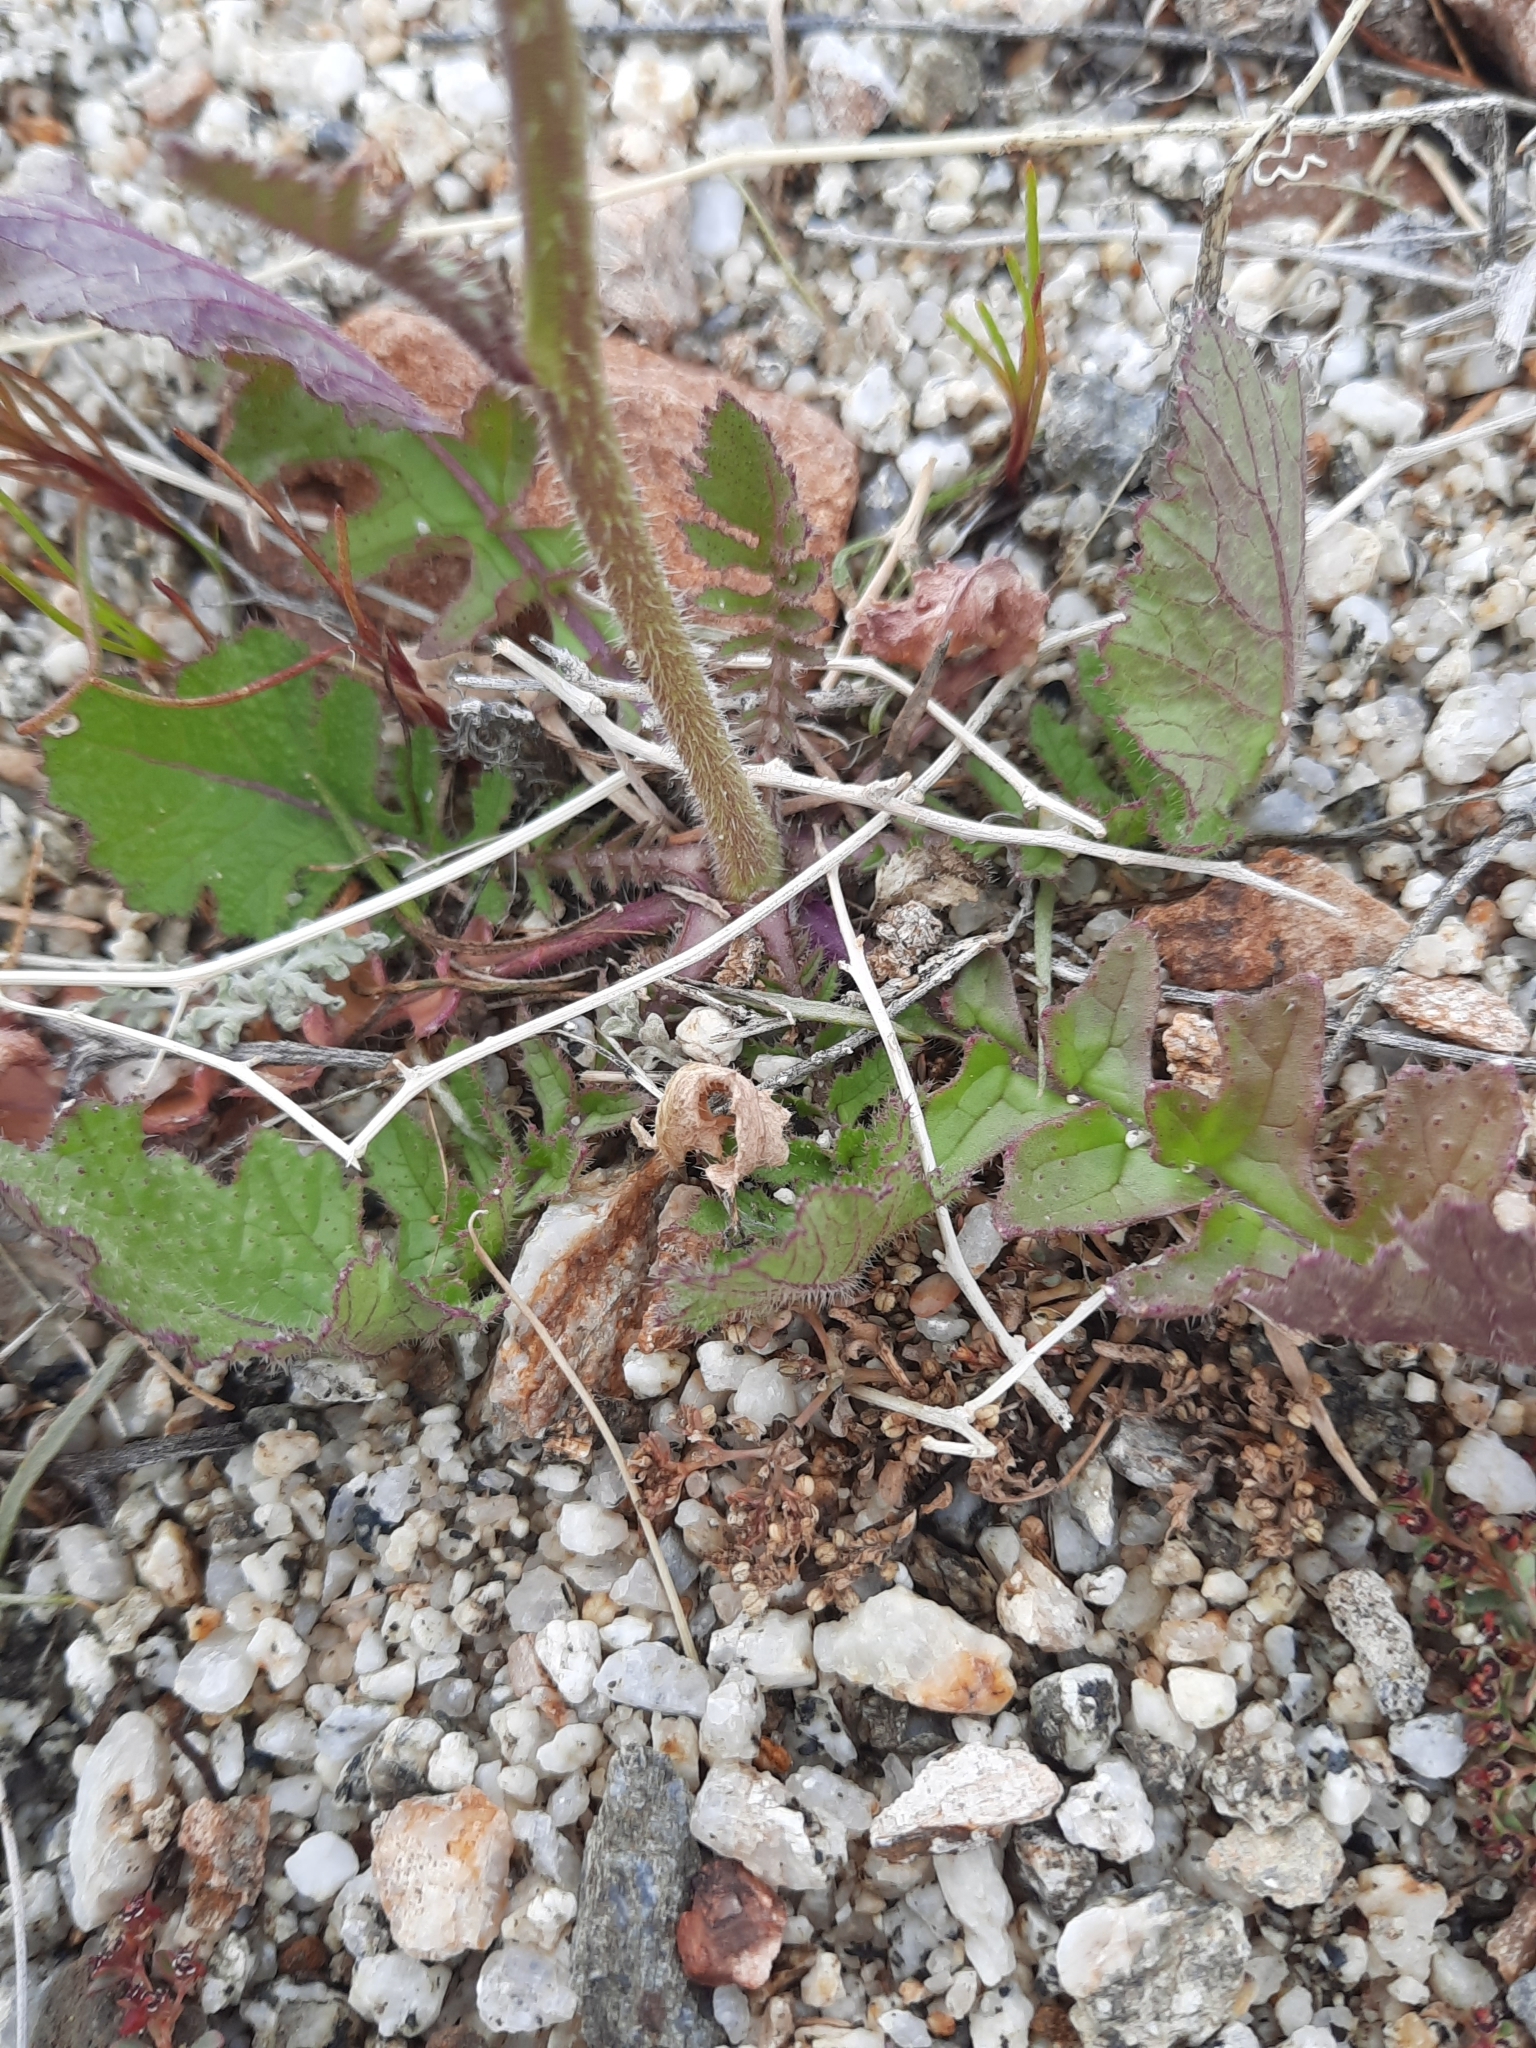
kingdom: Plantae
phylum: Tracheophyta
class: Magnoliopsida
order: Brassicales
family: Brassicaceae
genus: Brassica
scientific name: Brassica tournefortii
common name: Pale cabbage
